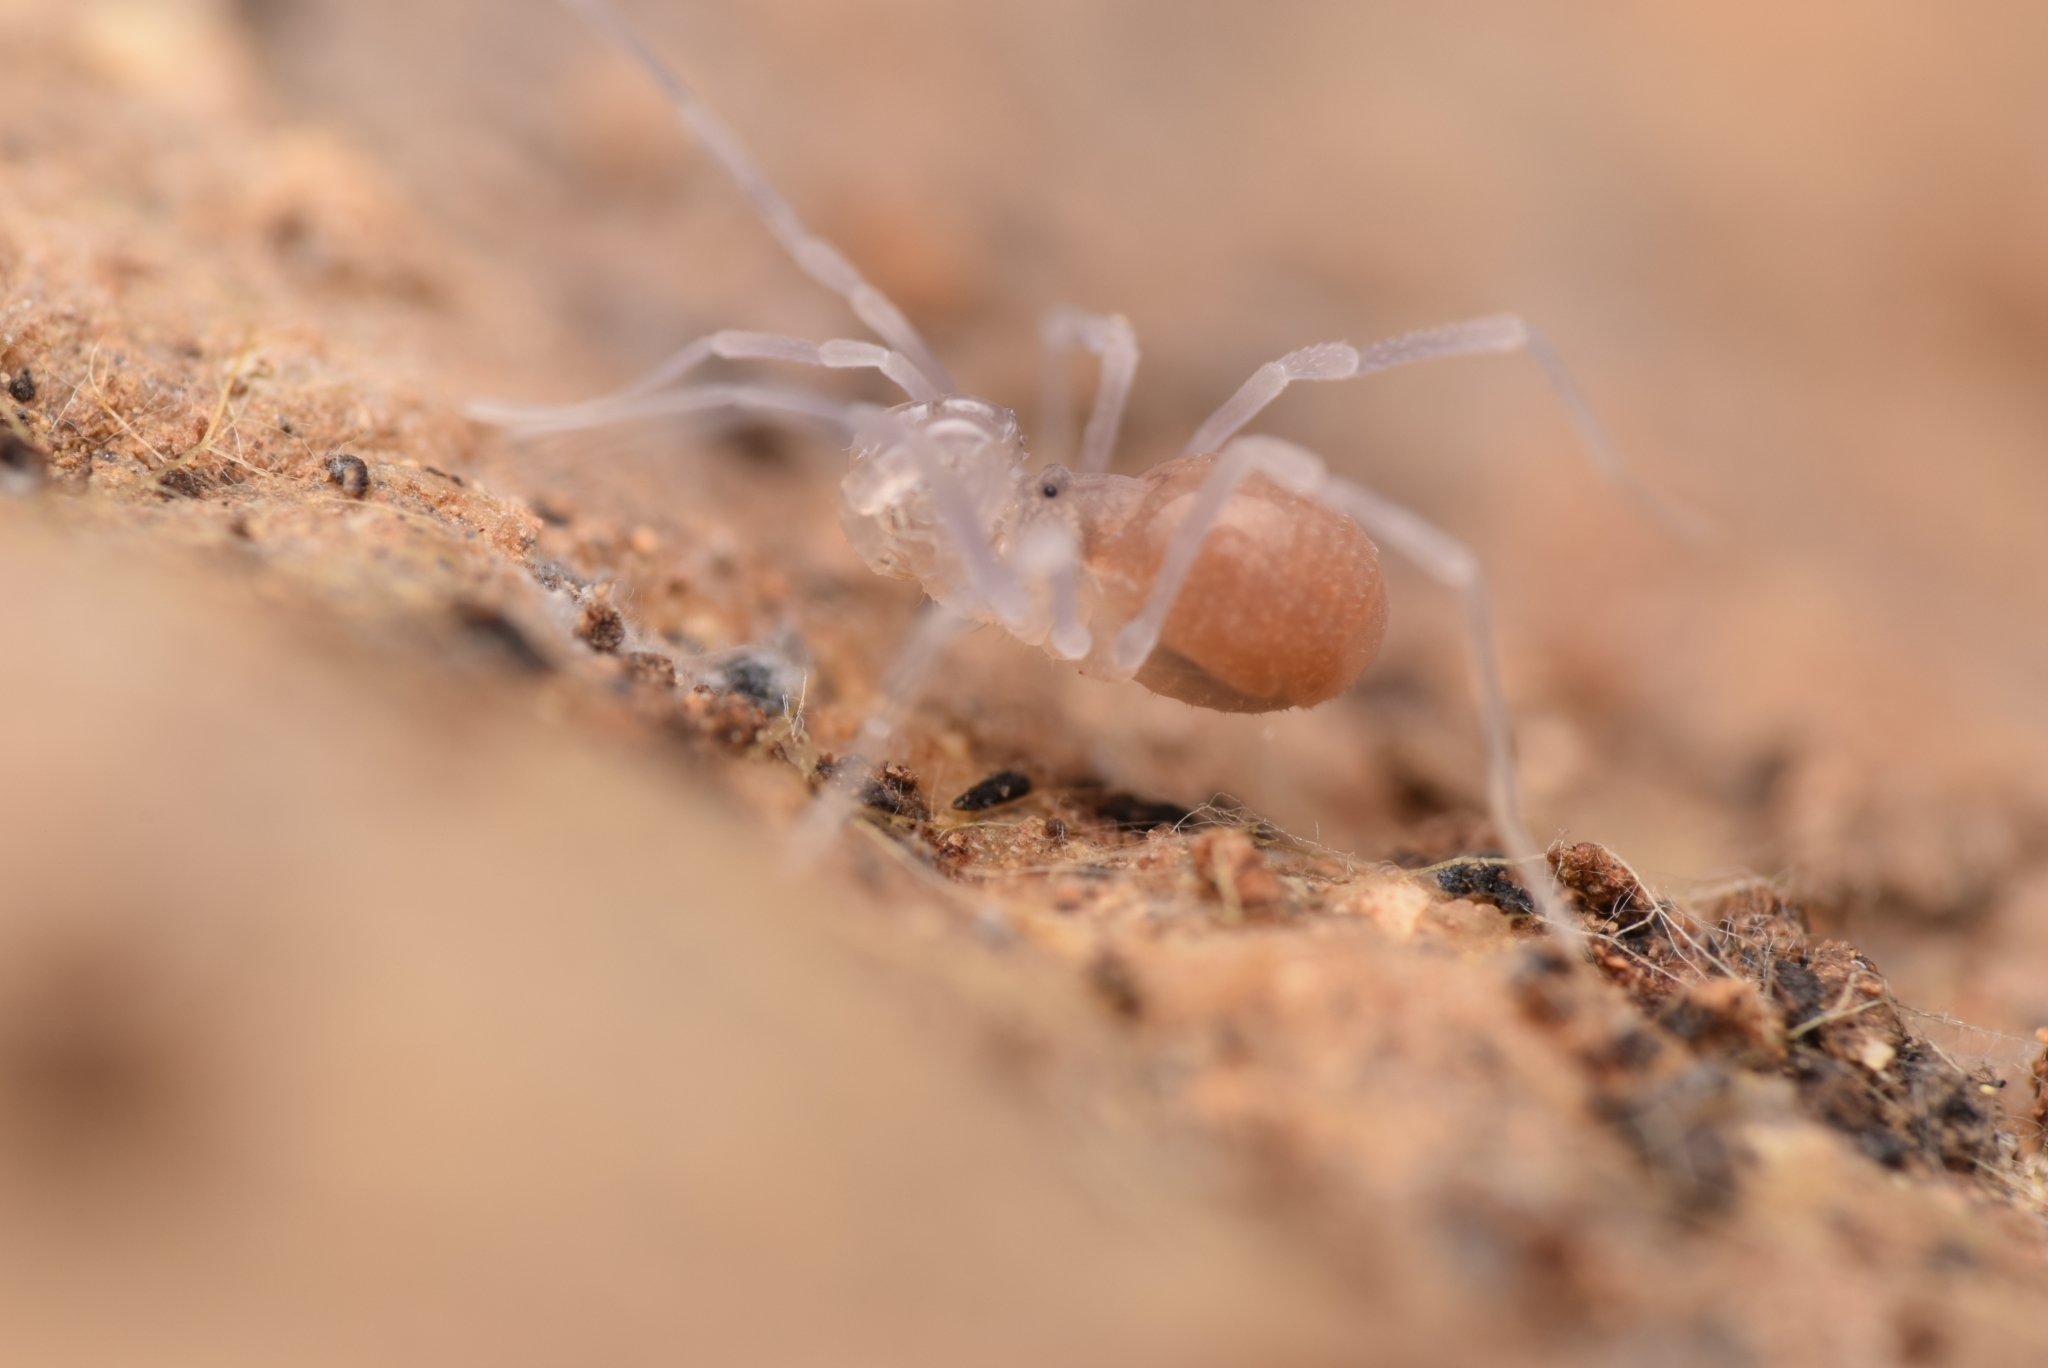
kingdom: Animalia
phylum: Arthropoda
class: Arachnida
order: Opiliones
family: Cladonychiidae
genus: Holoscotolemon
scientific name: Holoscotolemon querilhaci
